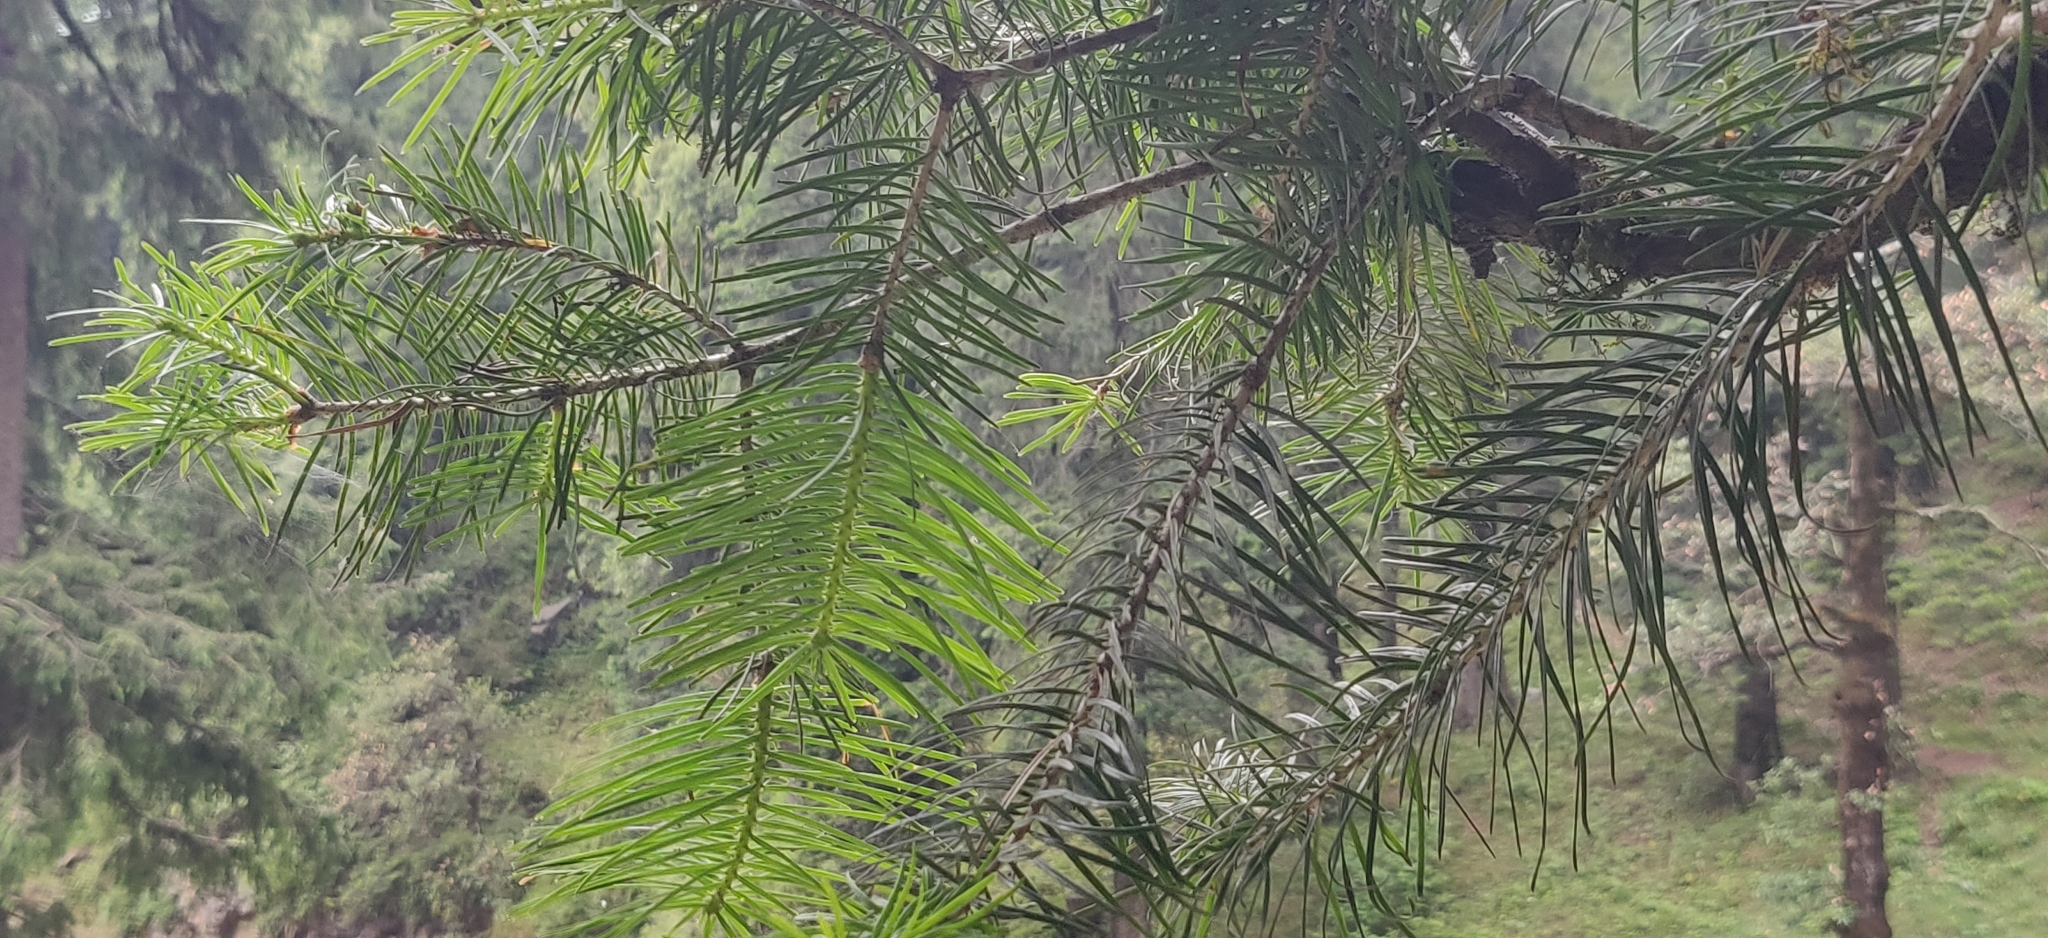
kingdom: Plantae
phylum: Tracheophyta
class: Pinopsida
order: Pinales
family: Pinaceae
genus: Abies
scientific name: Abies pindrow
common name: Pindrow fir
